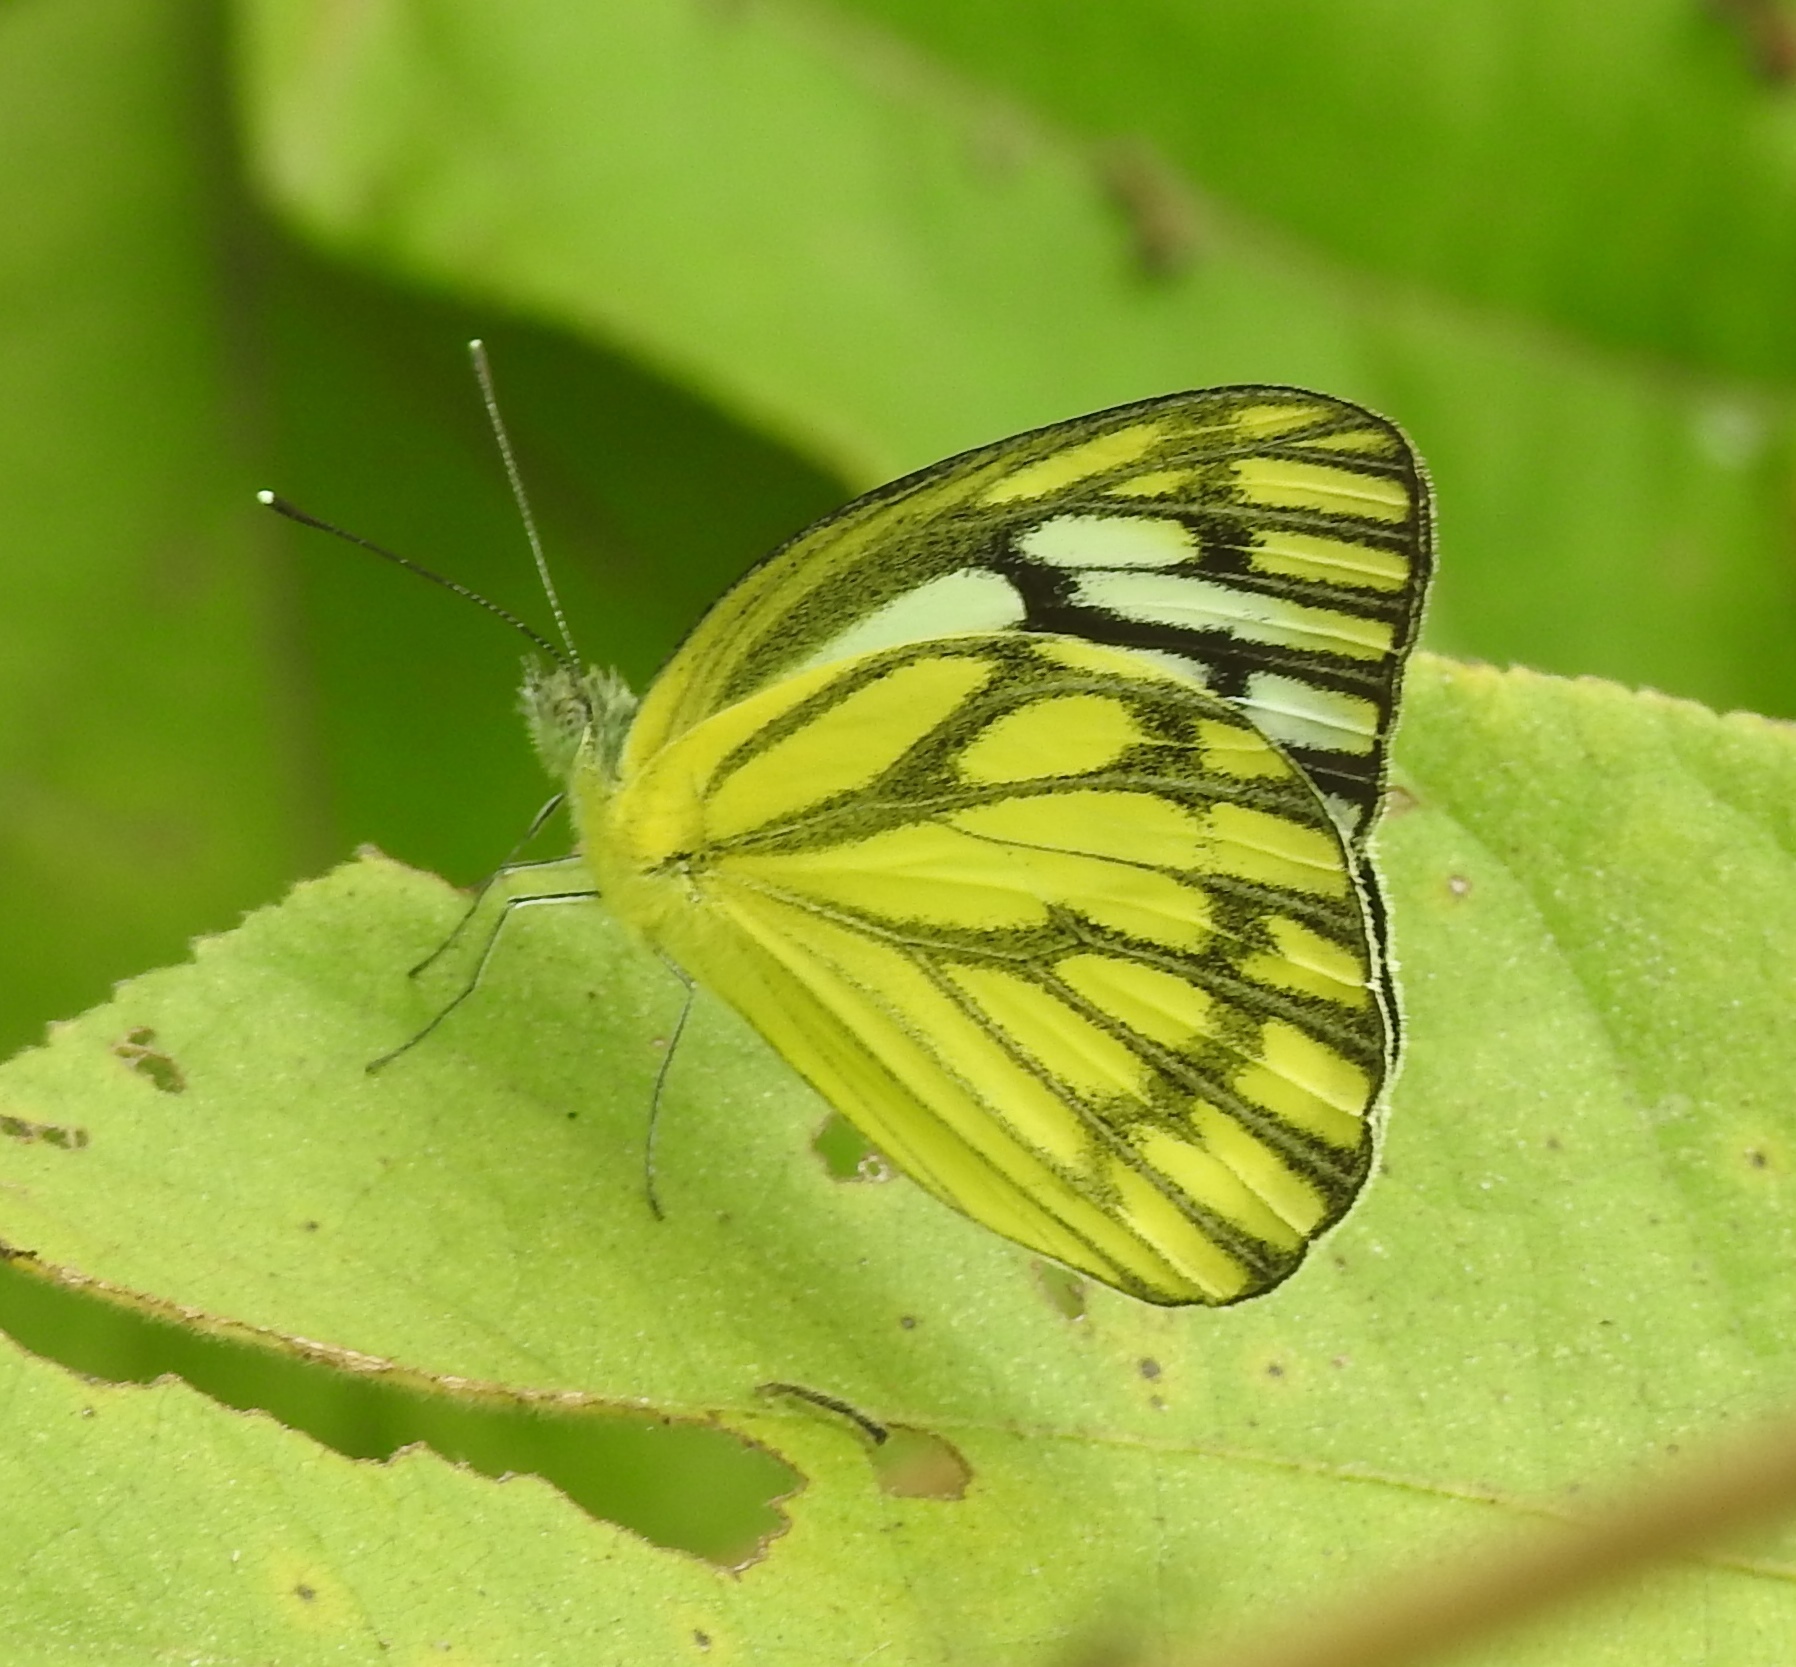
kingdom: Animalia
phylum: Arthropoda
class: Insecta
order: Lepidoptera
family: Pieridae
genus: Cepora
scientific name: Cepora nerissa
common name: Common gull
